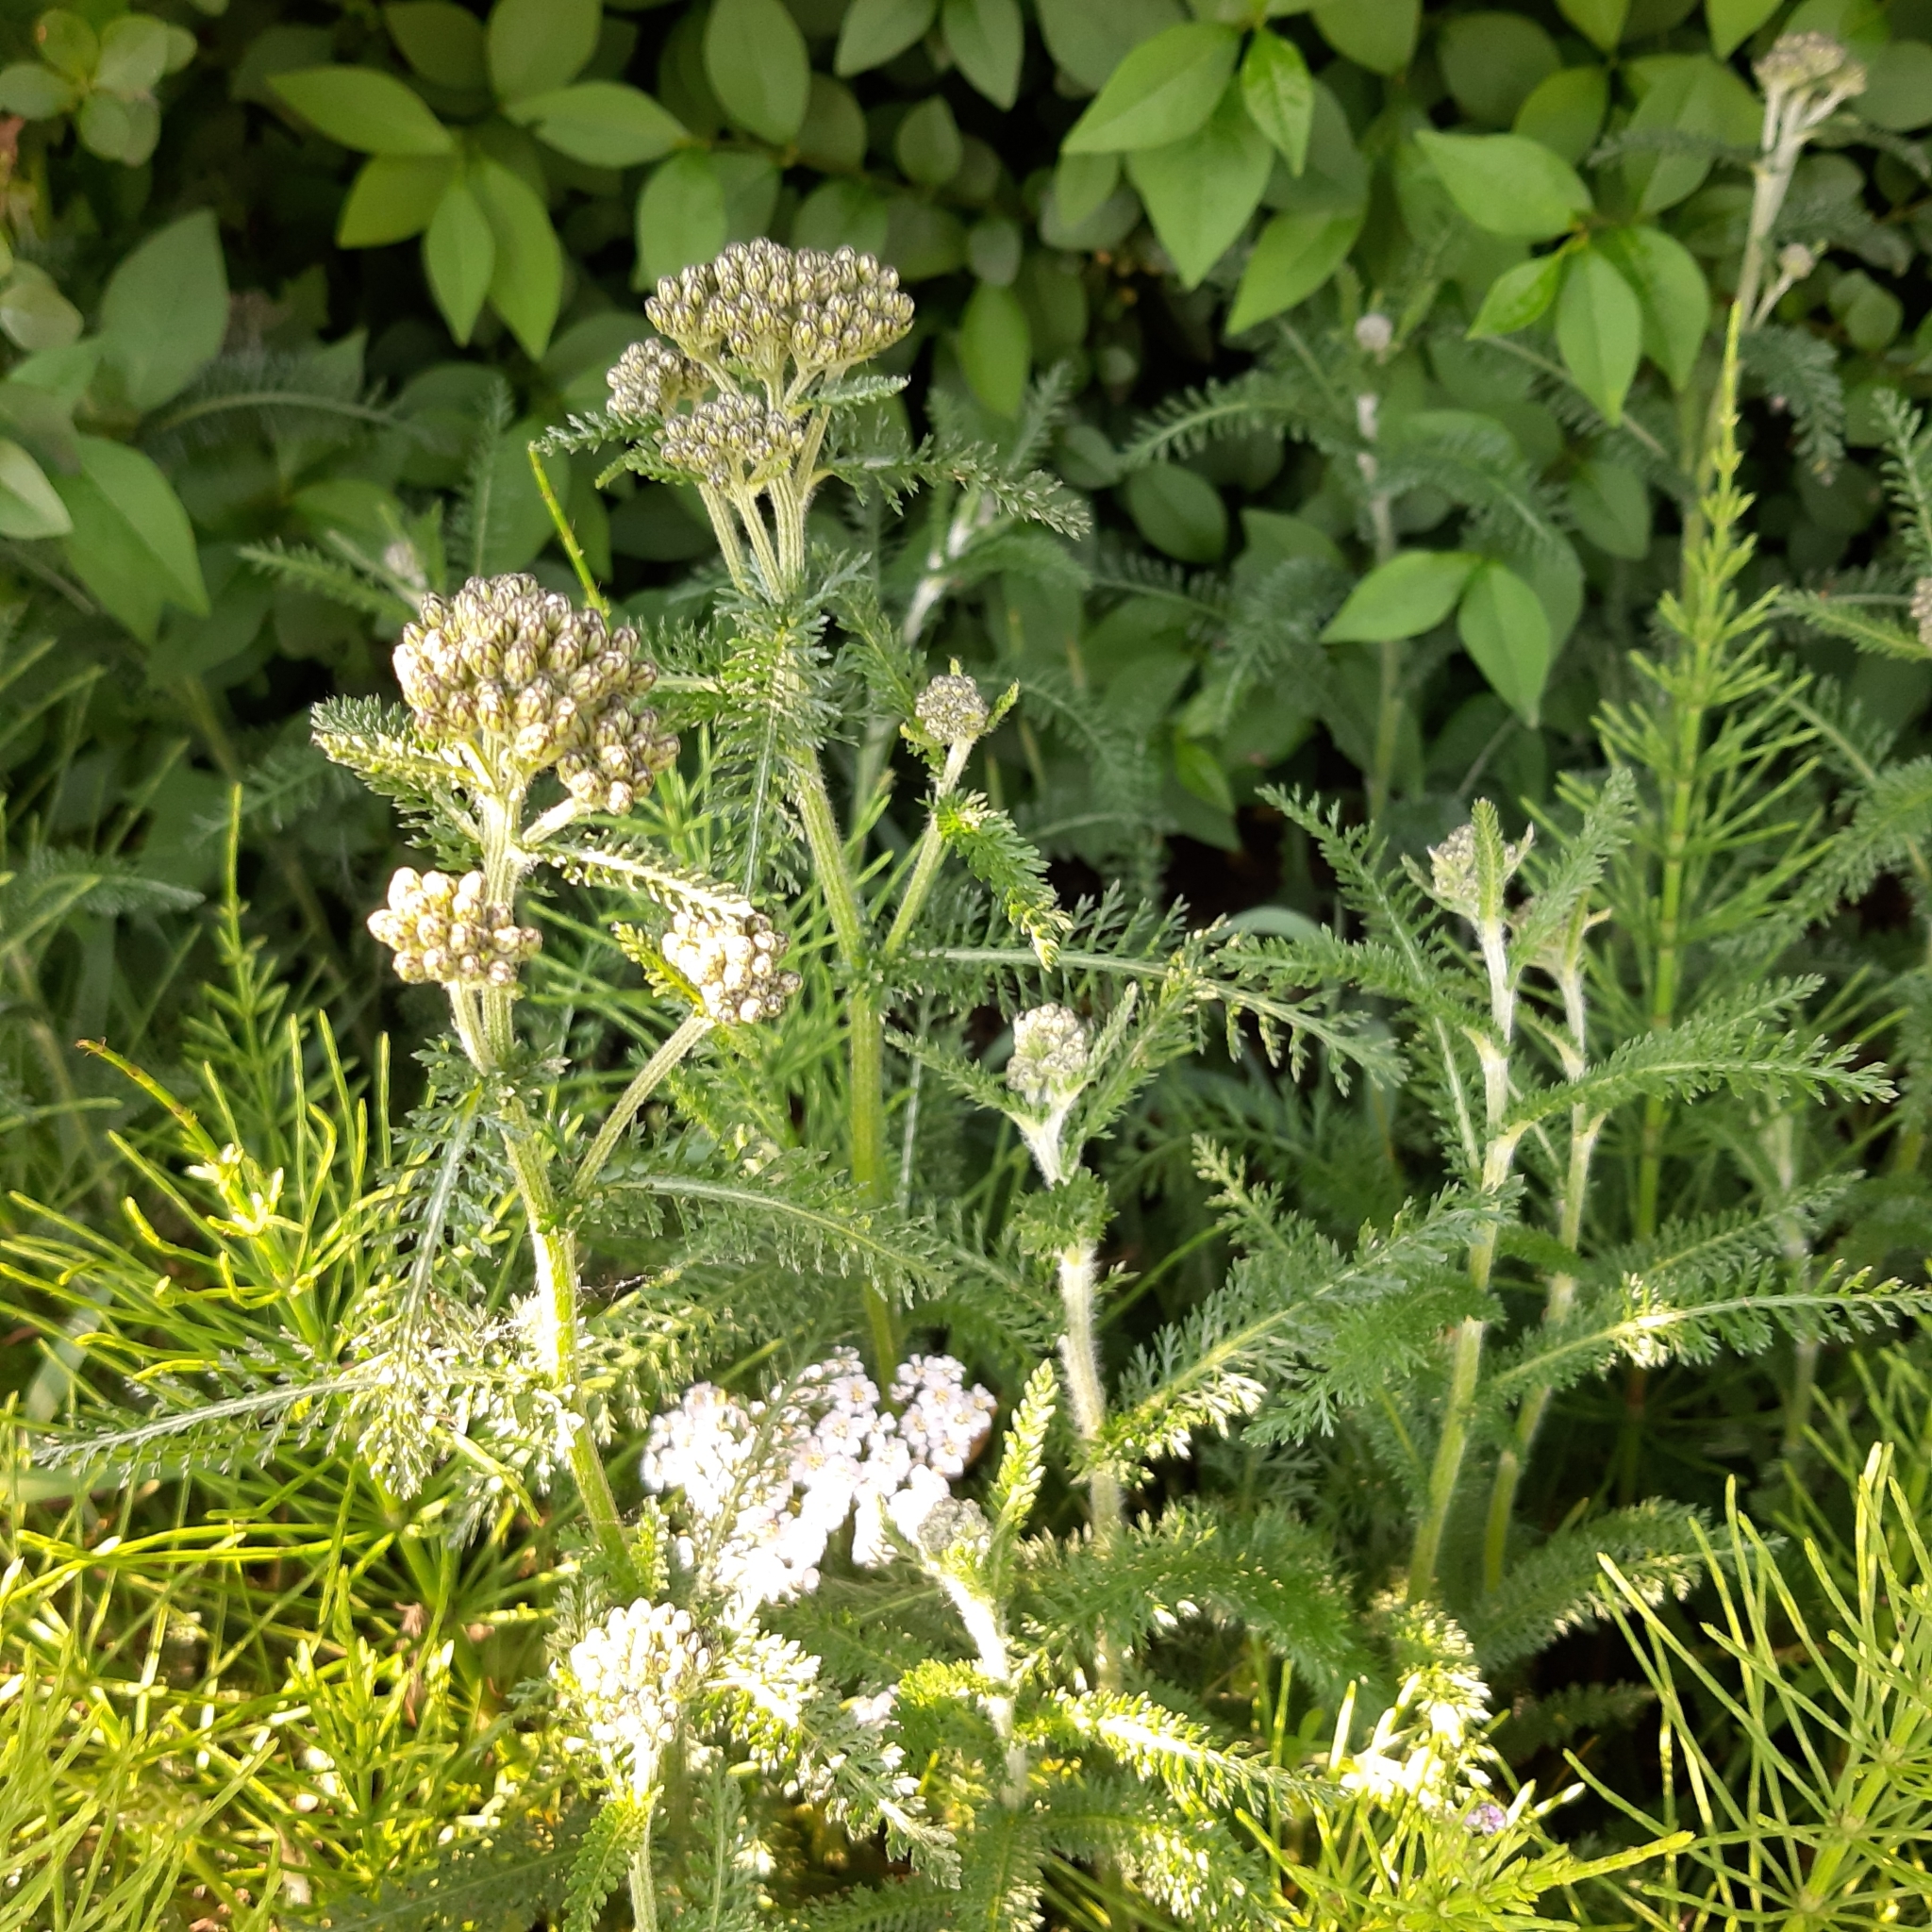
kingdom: Plantae
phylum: Tracheophyta
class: Magnoliopsida
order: Asterales
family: Asteraceae
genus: Achillea
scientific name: Achillea millefolium
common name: Yarrow
